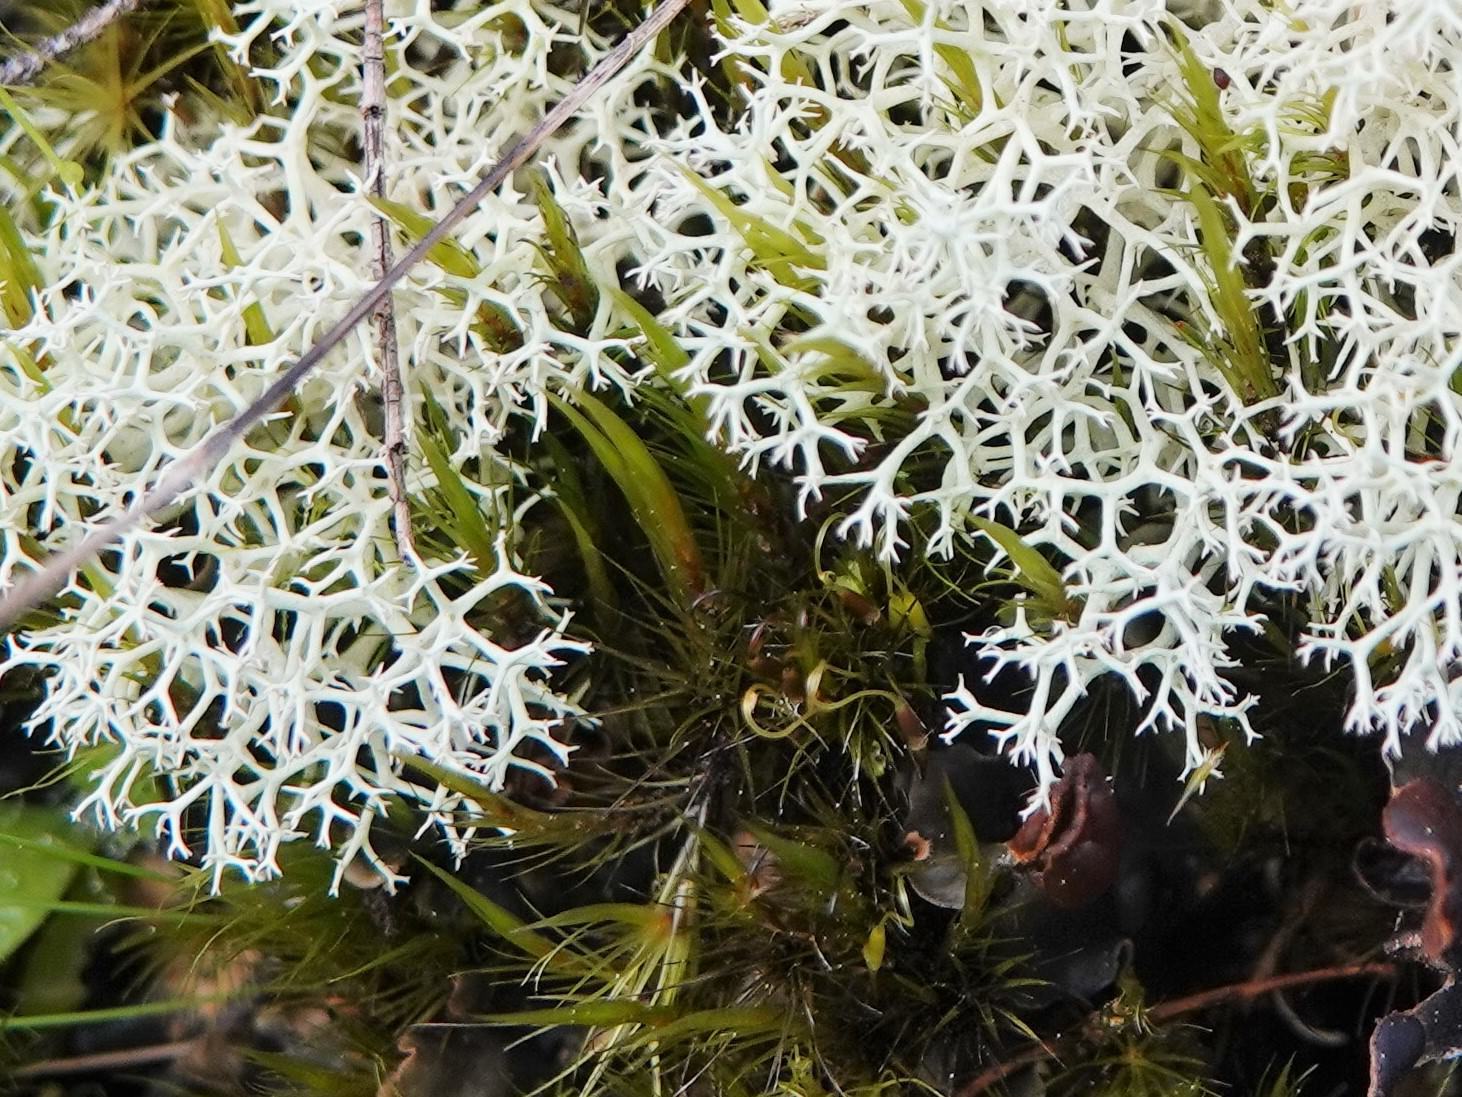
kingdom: Fungi
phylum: Ascomycota
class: Lecanoromycetes
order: Lecanorales
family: Cladoniaceae
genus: Cladonia
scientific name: Cladonia confusa
